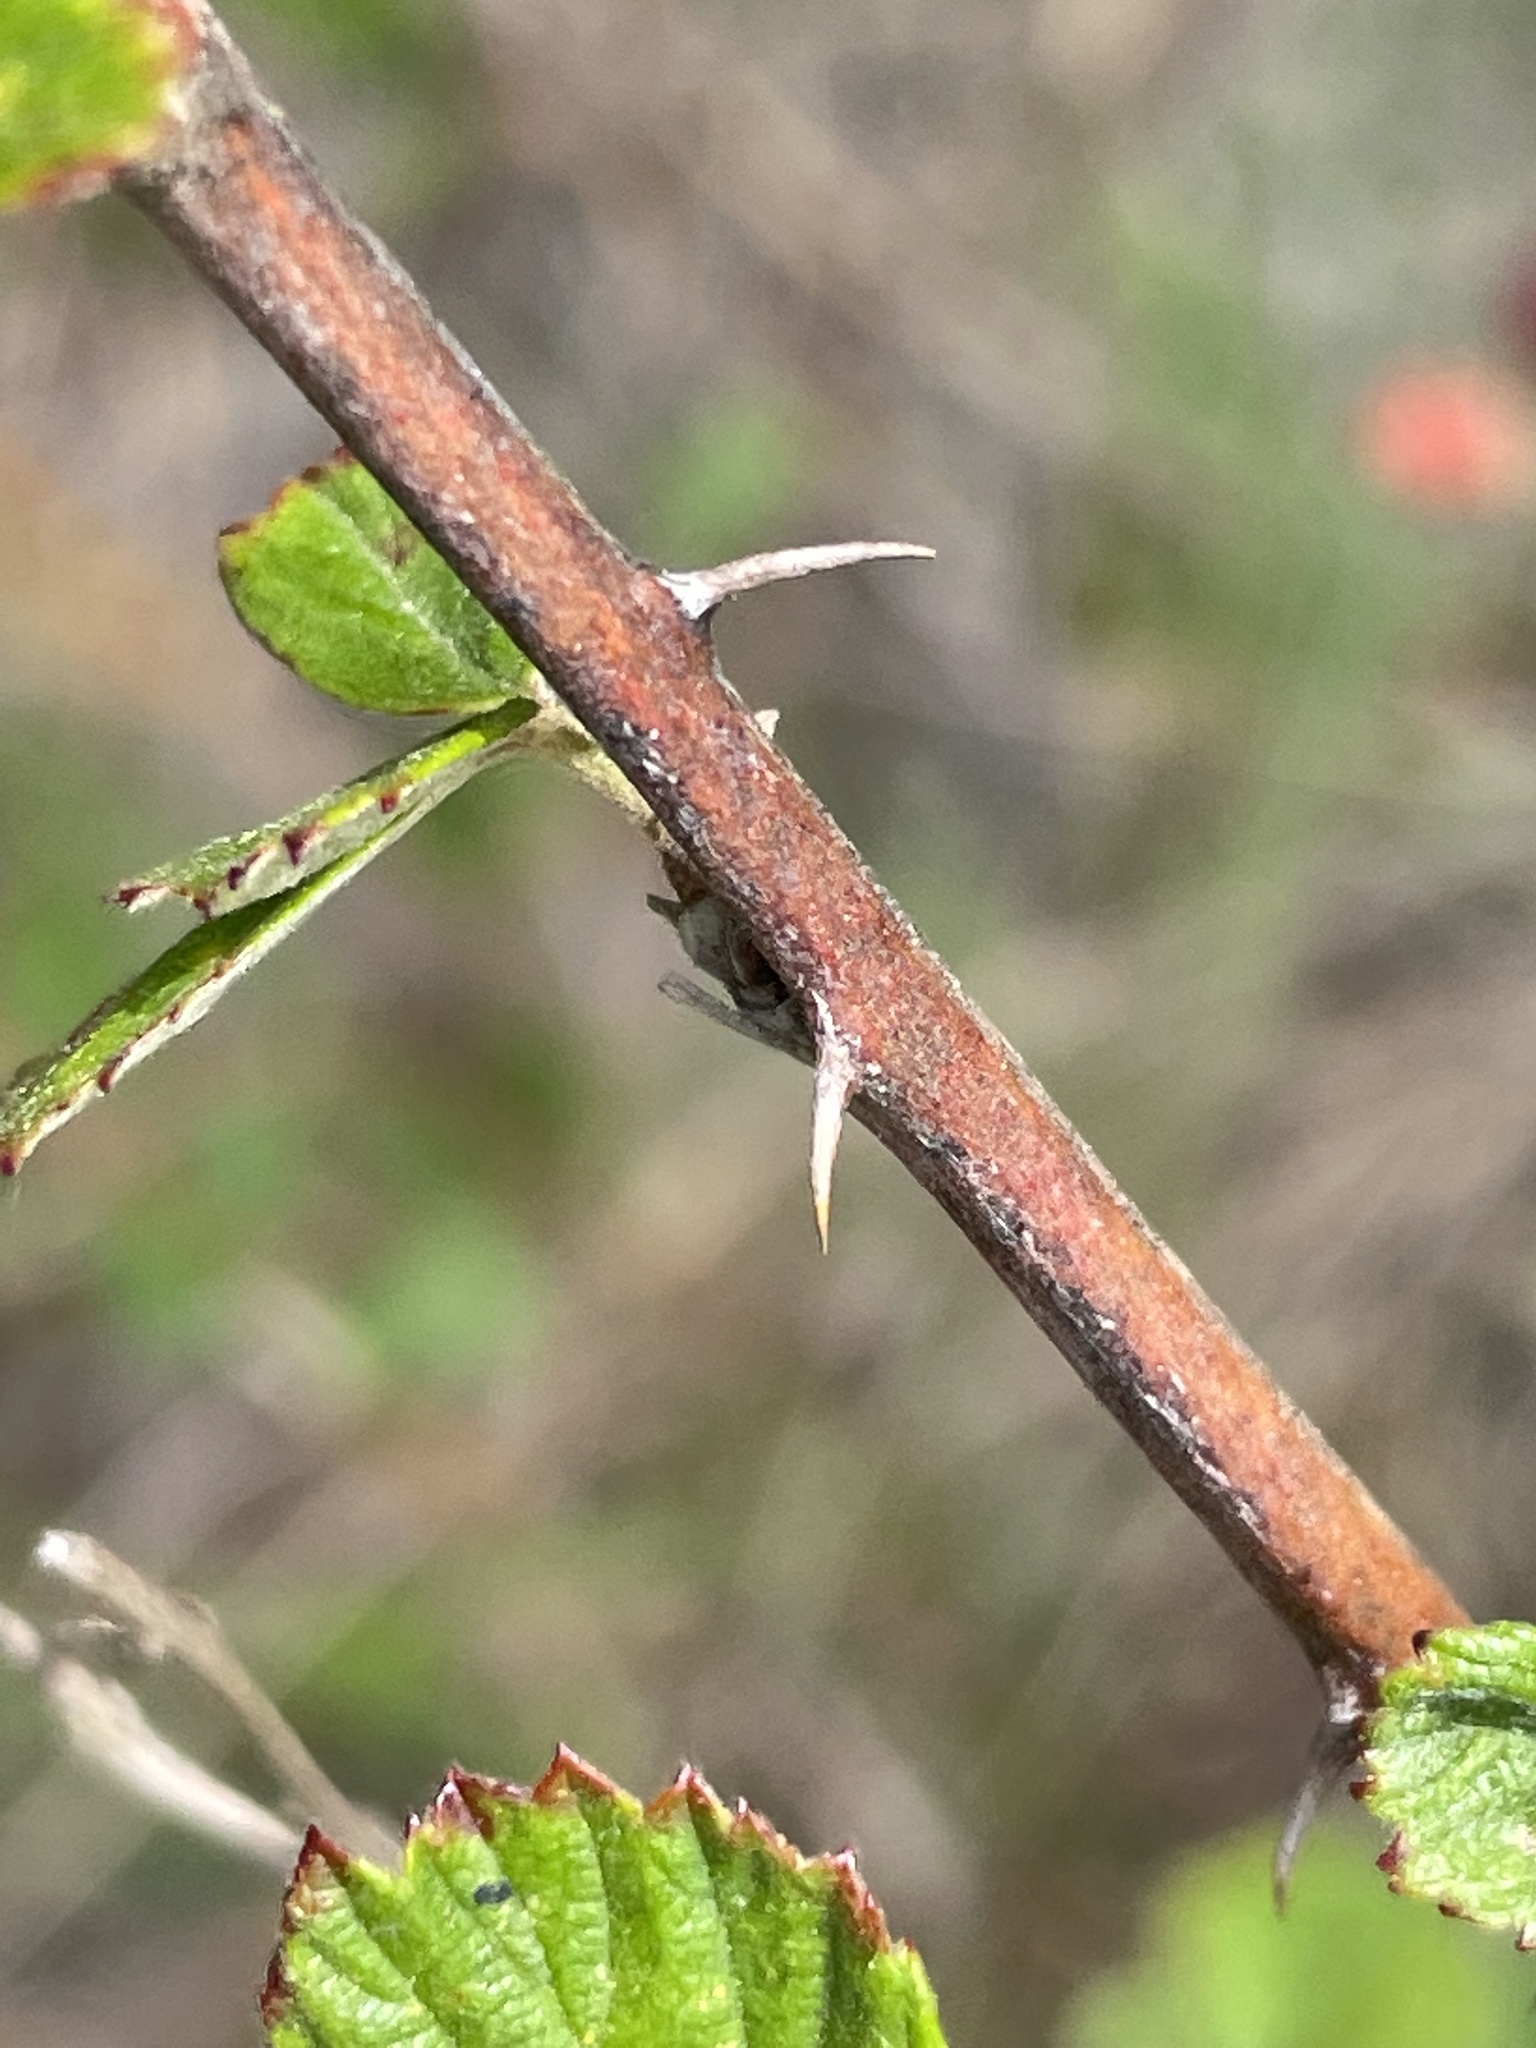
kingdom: Plantae
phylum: Tracheophyta
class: Magnoliopsida
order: Rosales
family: Rosaceae
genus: Rubus
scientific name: Rubus cuneifolius
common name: American bramble
